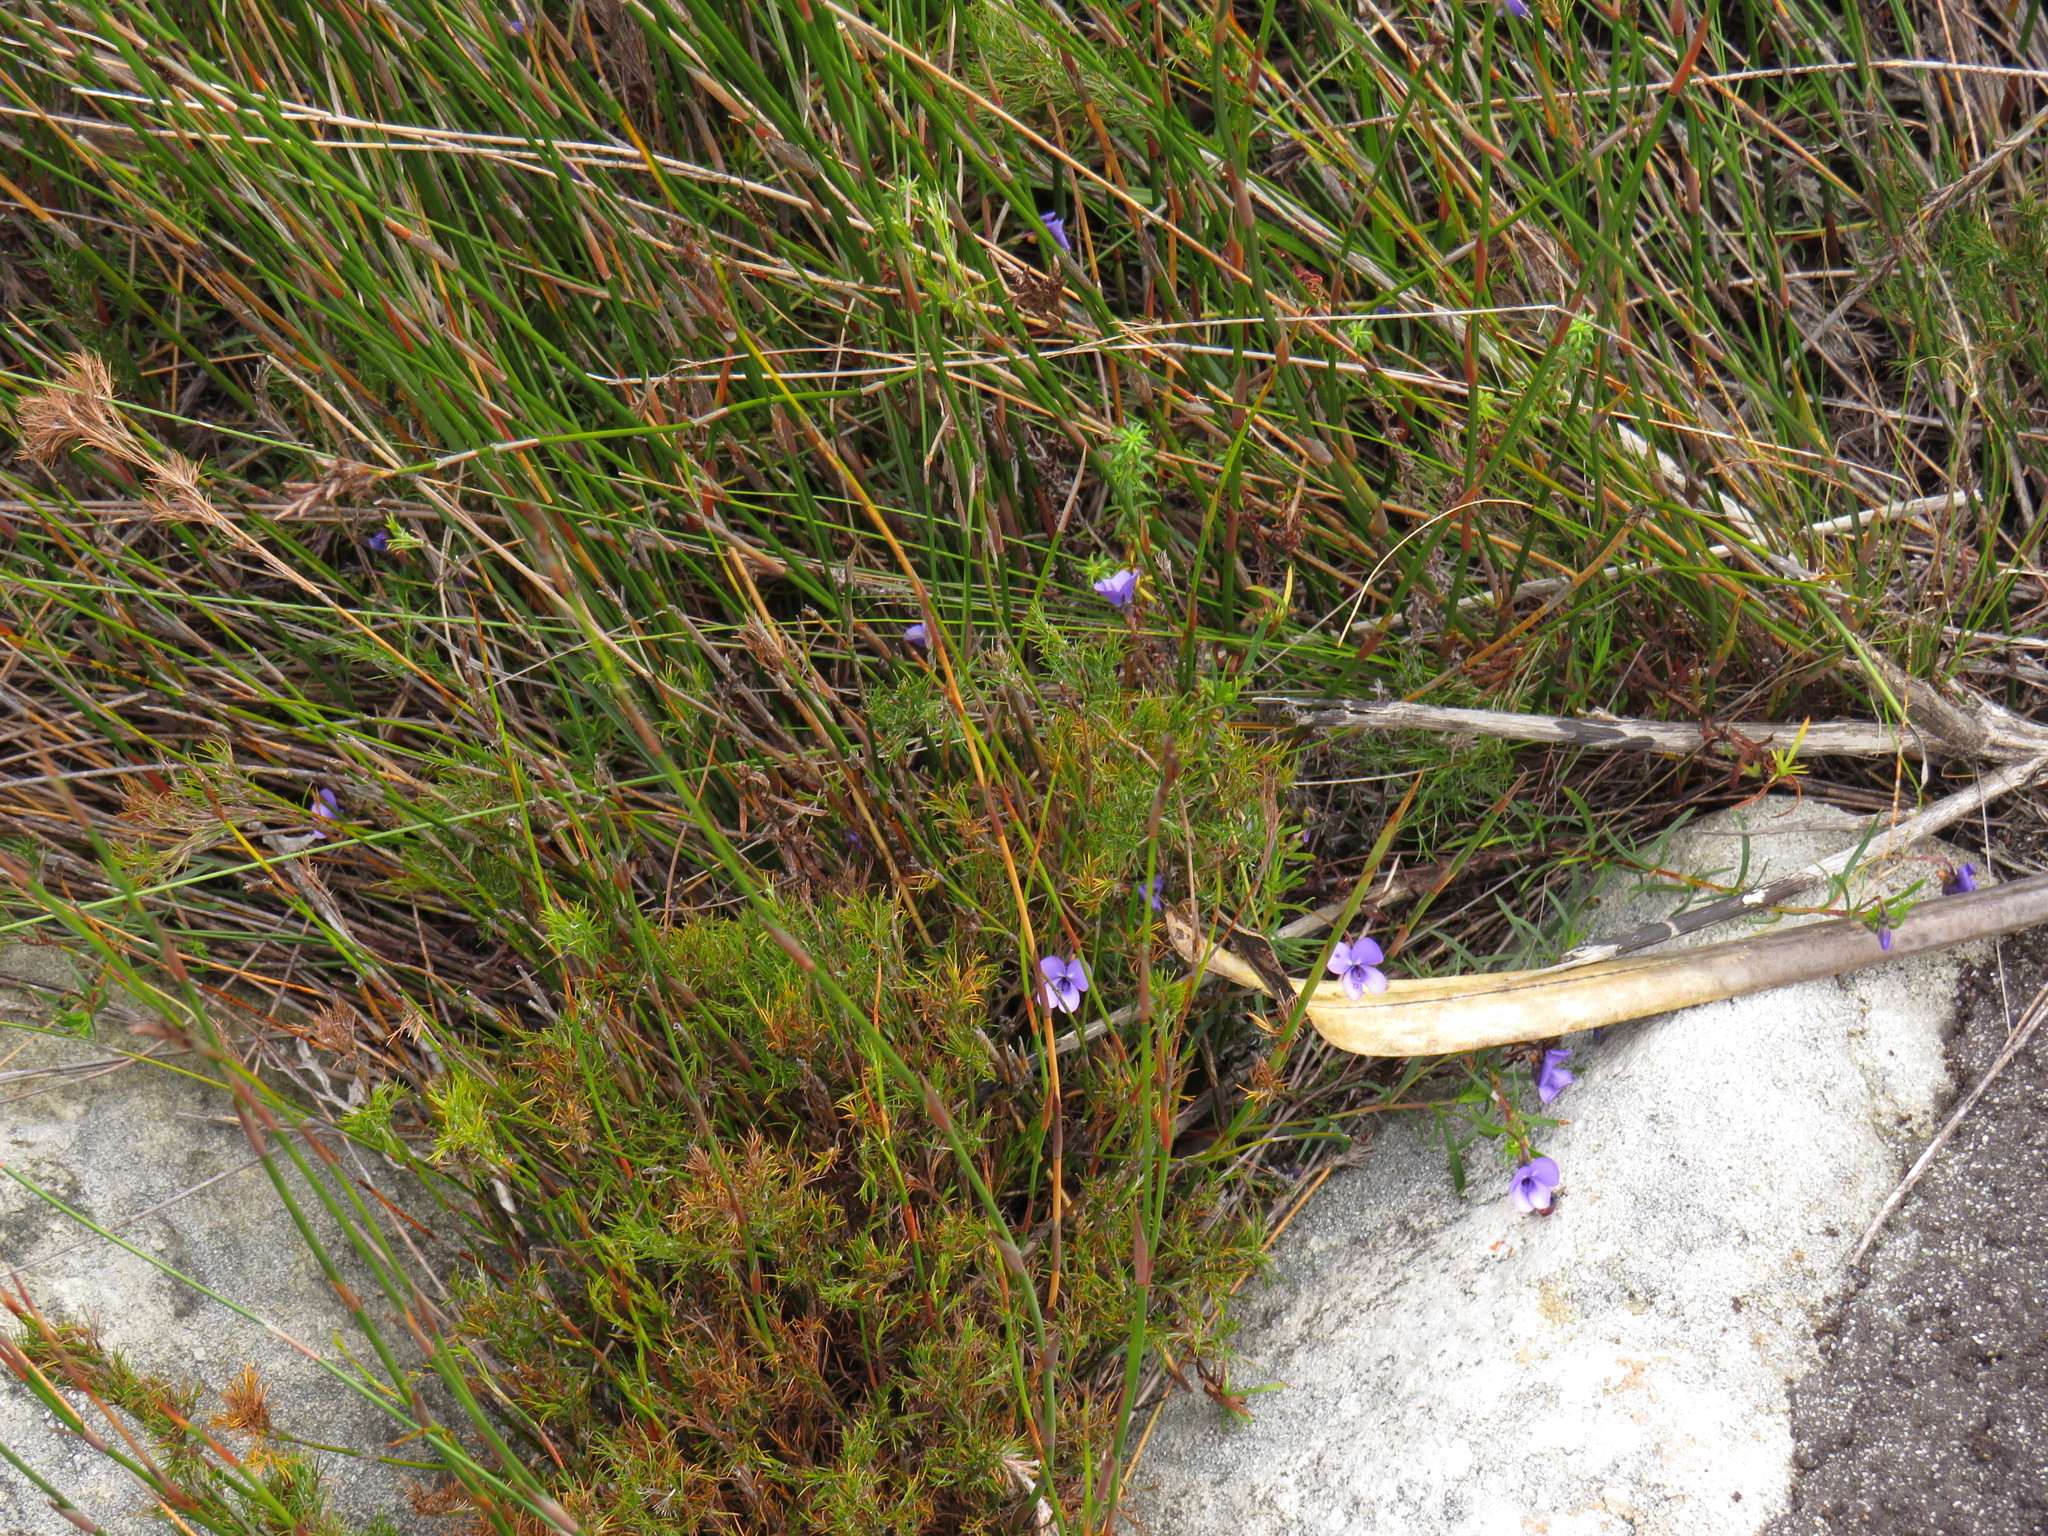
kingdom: Plantae
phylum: Tracheophyta
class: Magnoliopsida
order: Malpighiales
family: Violaceae
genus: Viola
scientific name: Viola decumbens
